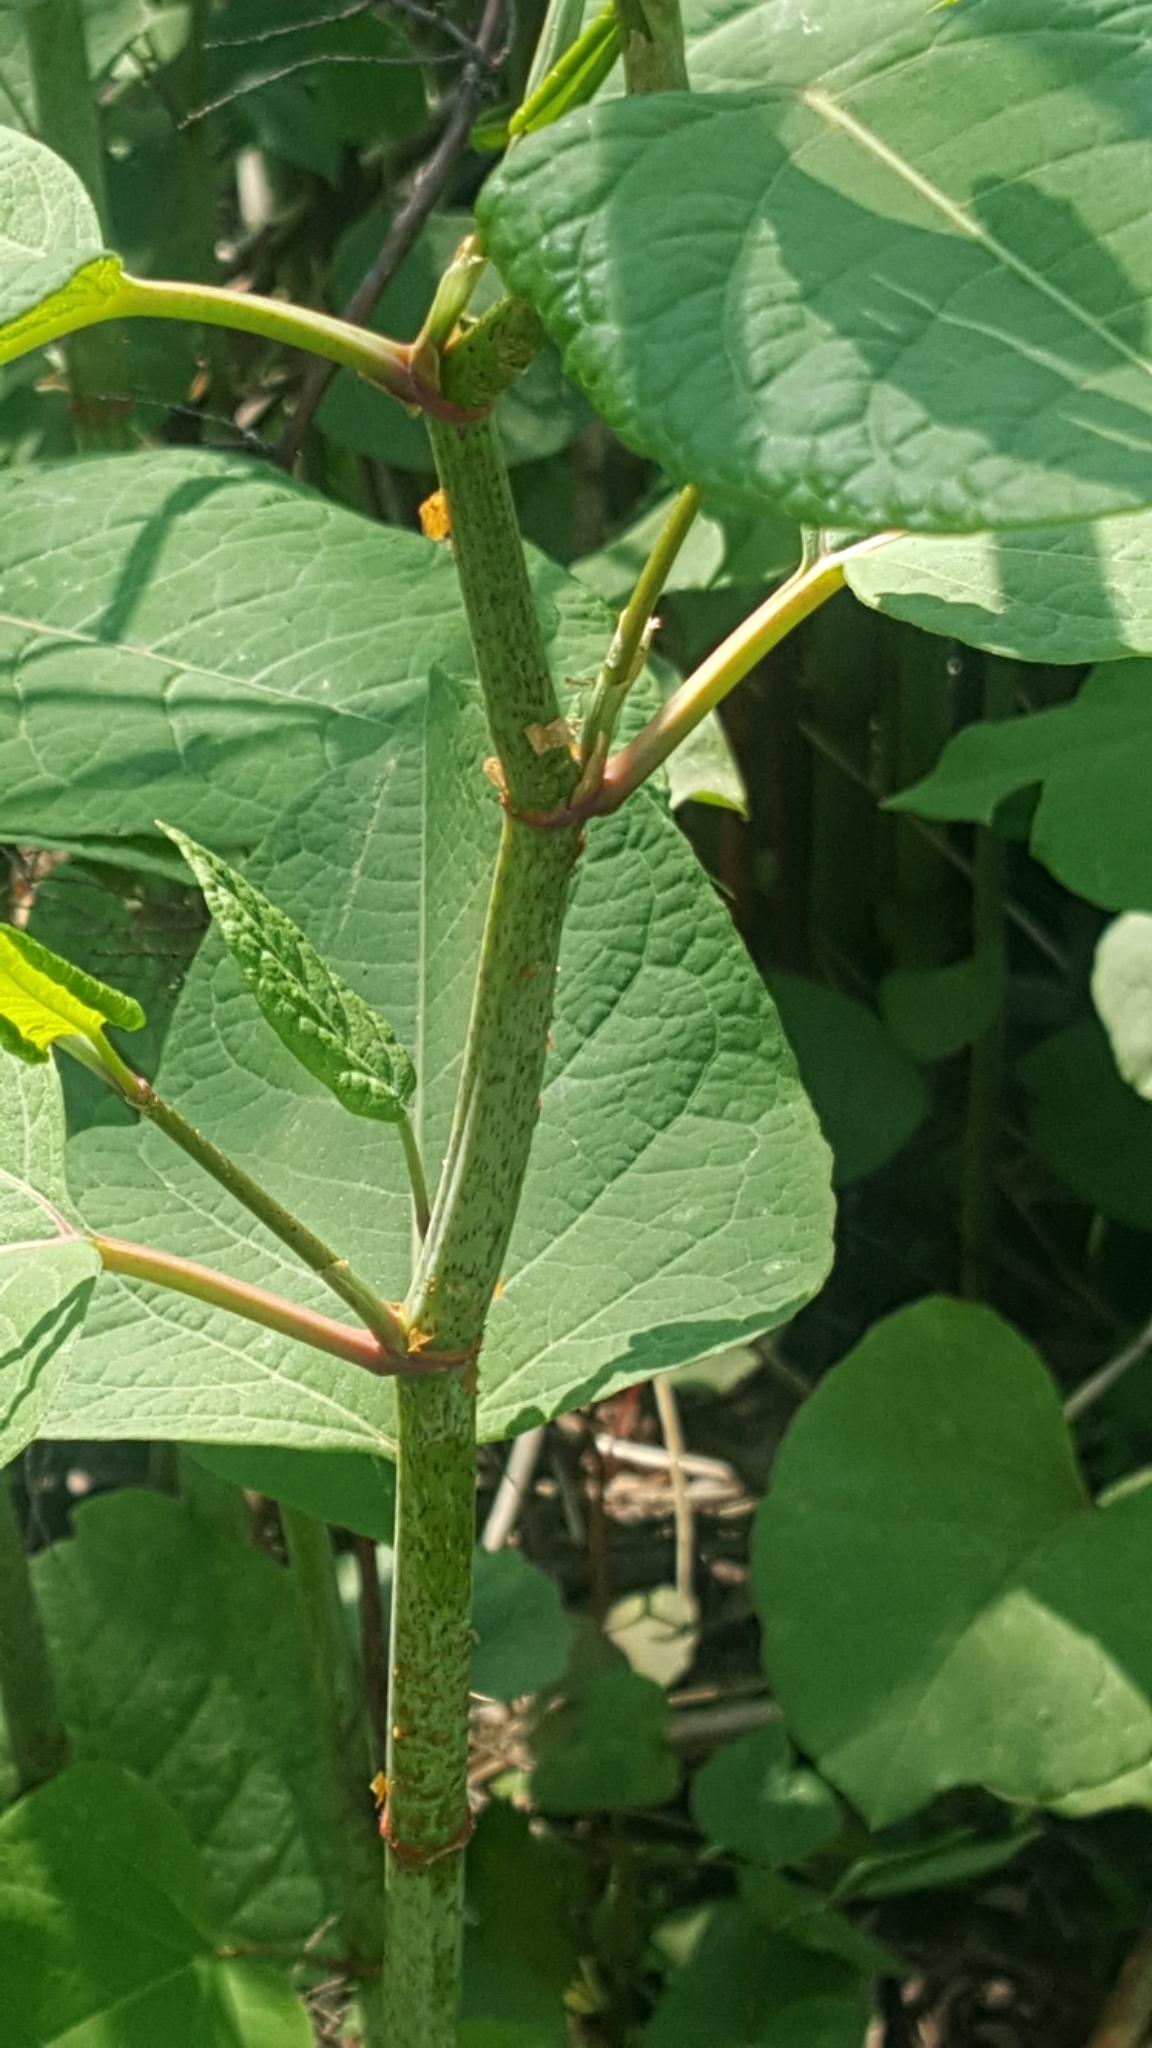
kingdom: Plantae
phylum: Tracheophyta
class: Magnoliopsida
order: Caryophyllales
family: Polygonaceae
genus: Reynoutria
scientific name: Reynoutria japonica
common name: Japanese knotweed
